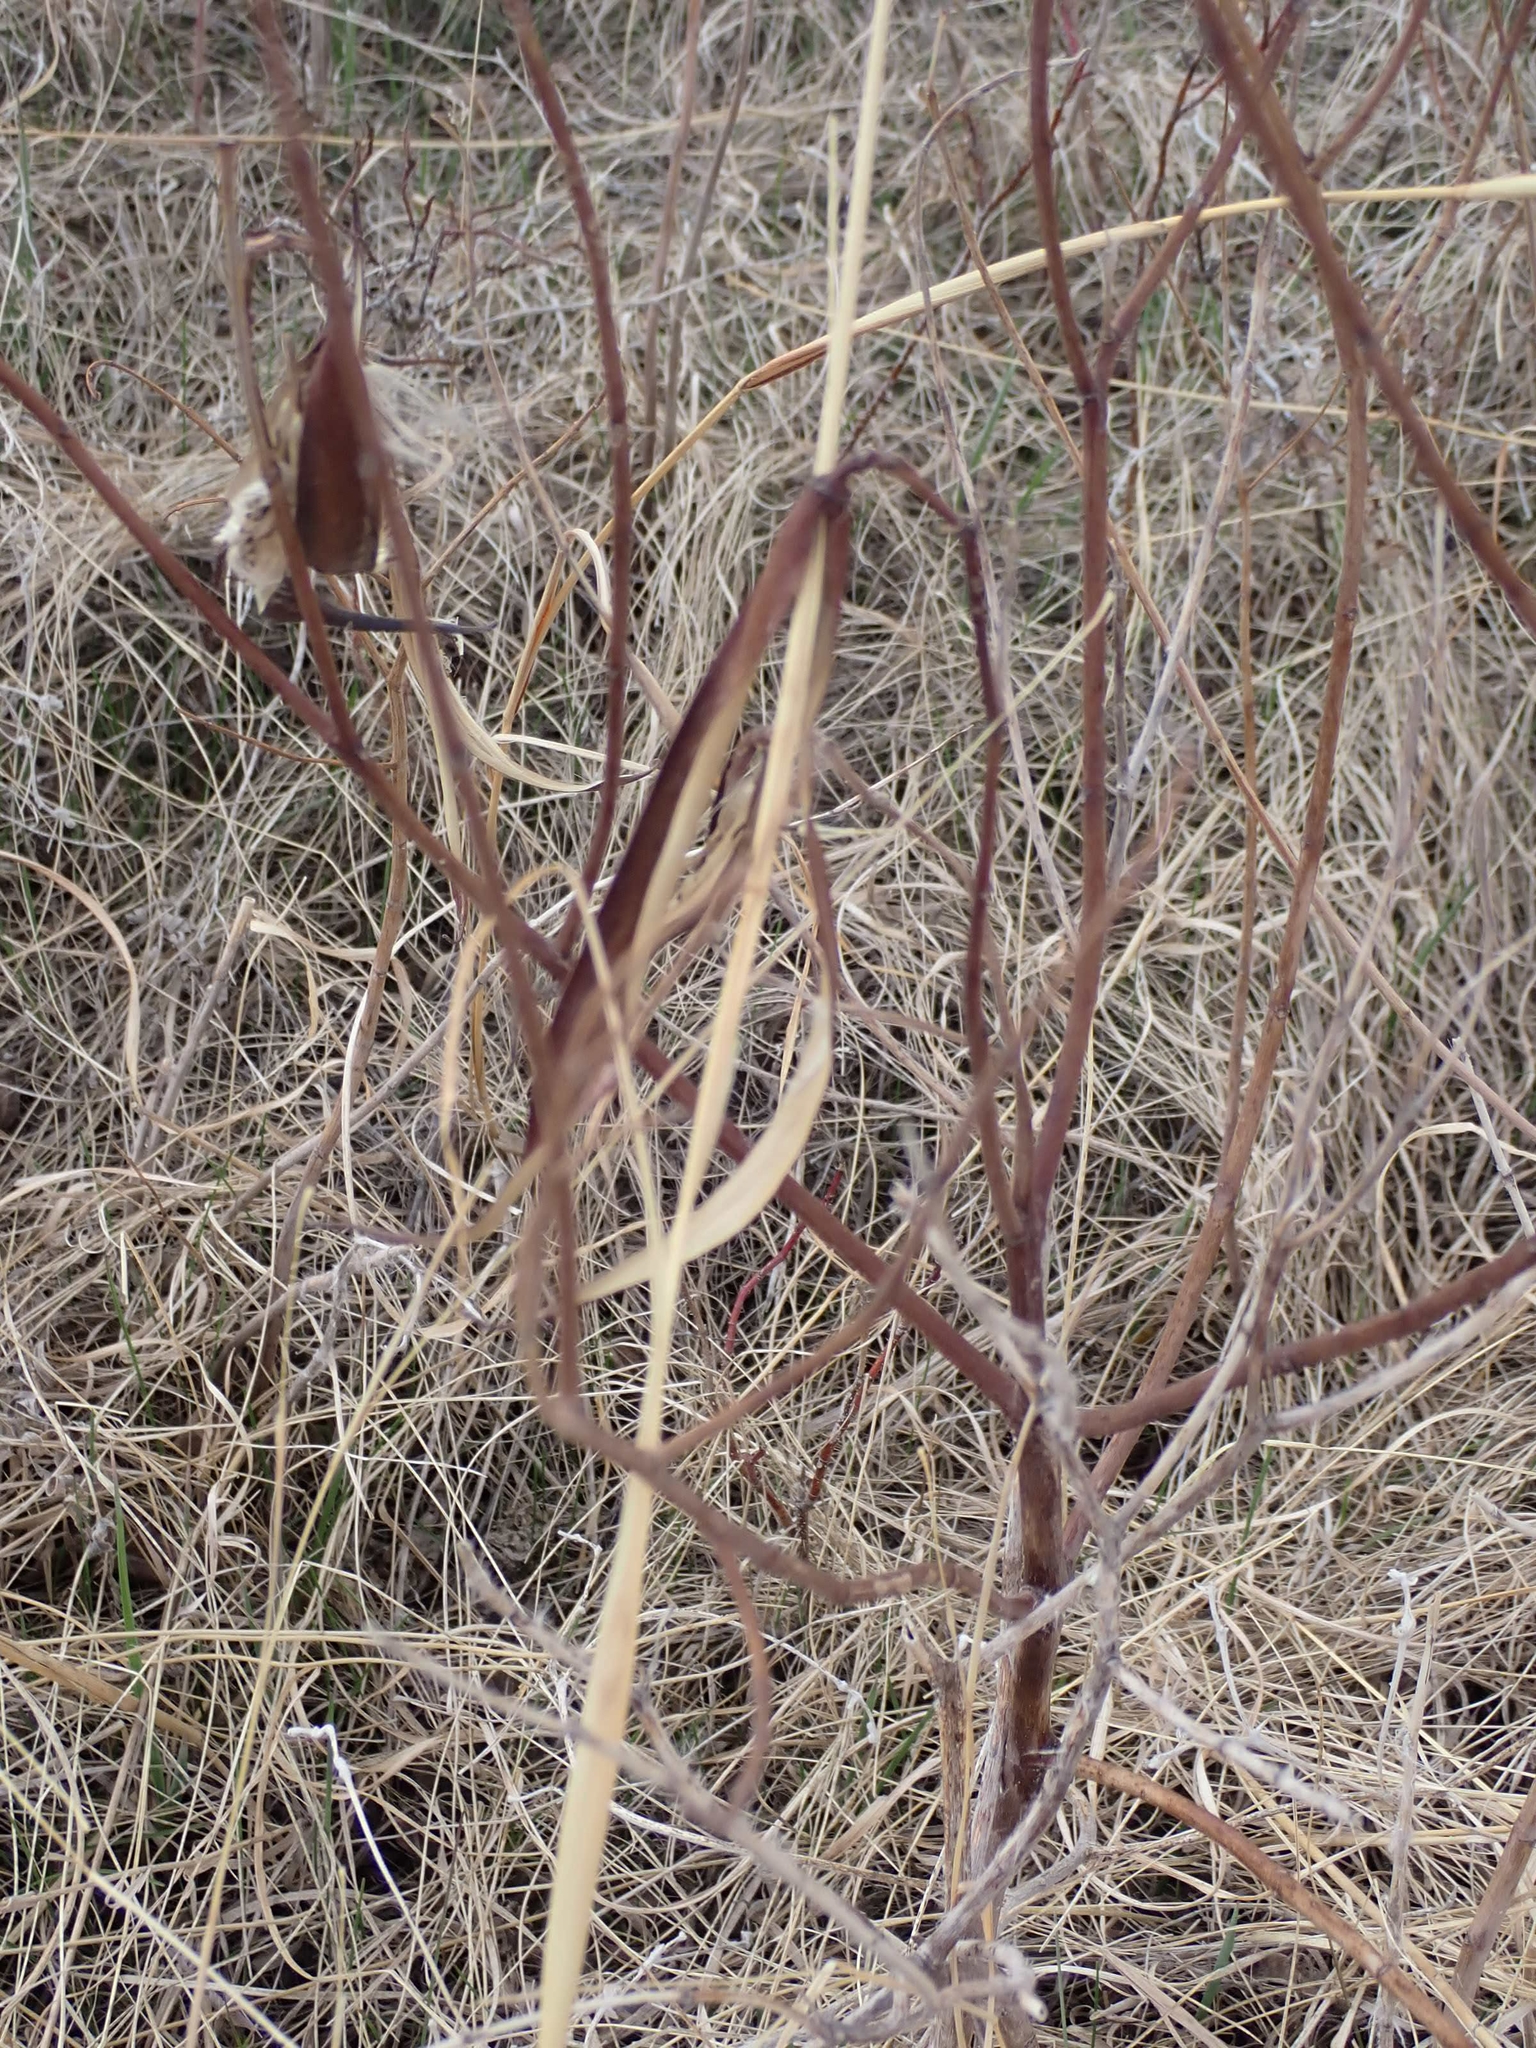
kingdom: Plantae
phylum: Tracheophyta
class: Magnoliopsida
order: Gentianales
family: Apocynaceae
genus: Apocynum
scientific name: Apocynum cannabinum
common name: Hemp dogbane
